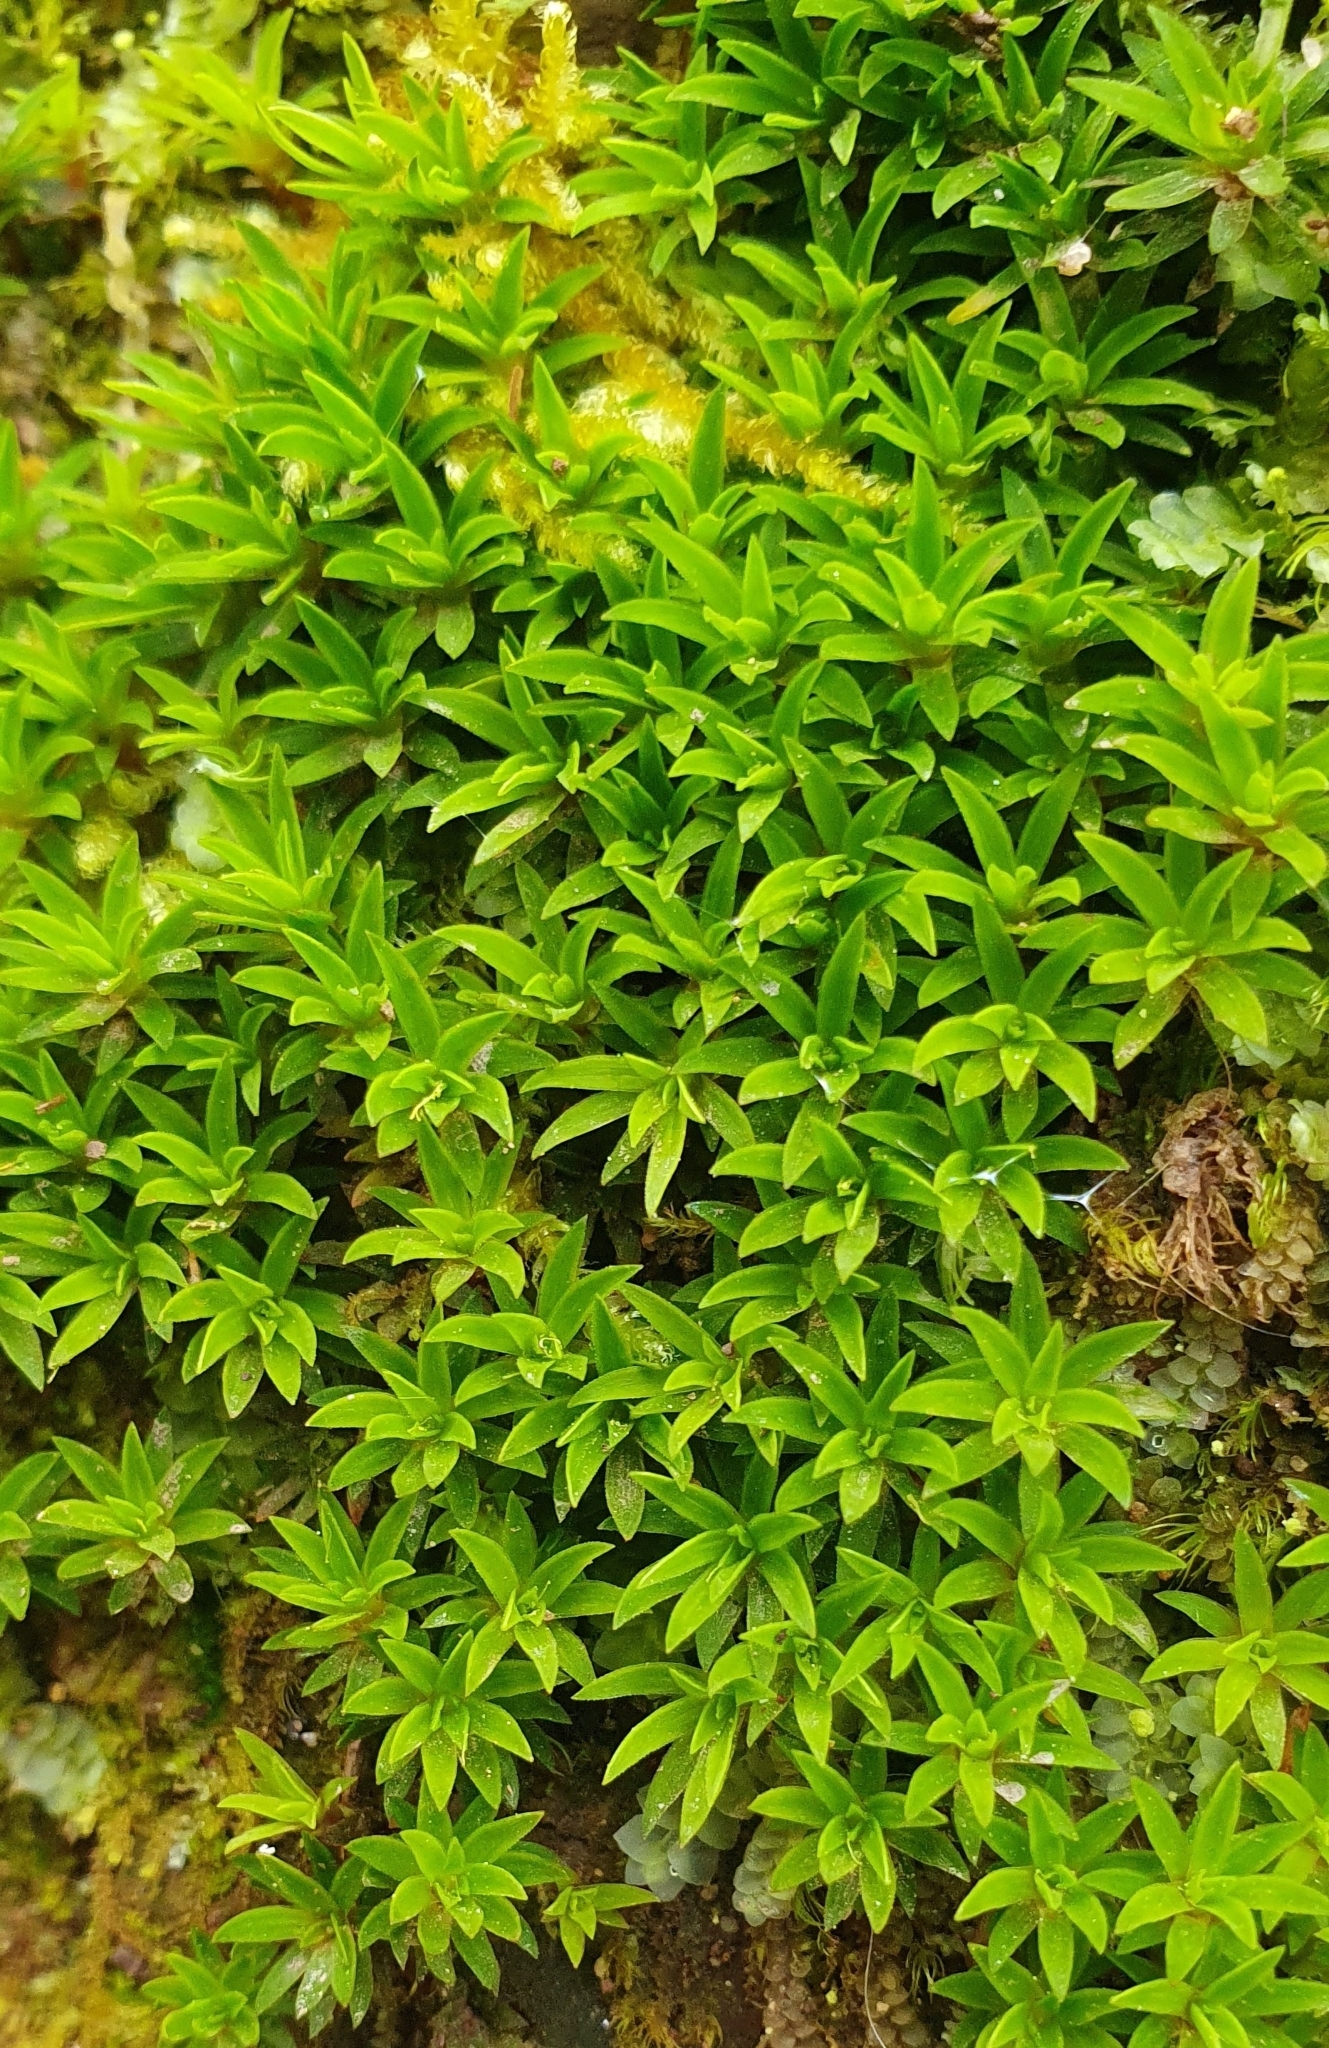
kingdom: Plantae
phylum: Bryophyta
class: Polytrichopsida
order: Polytrichales
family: Polytrichaceae
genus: Pogonatum
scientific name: Pogonatum aloides
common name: Aloe haircap
